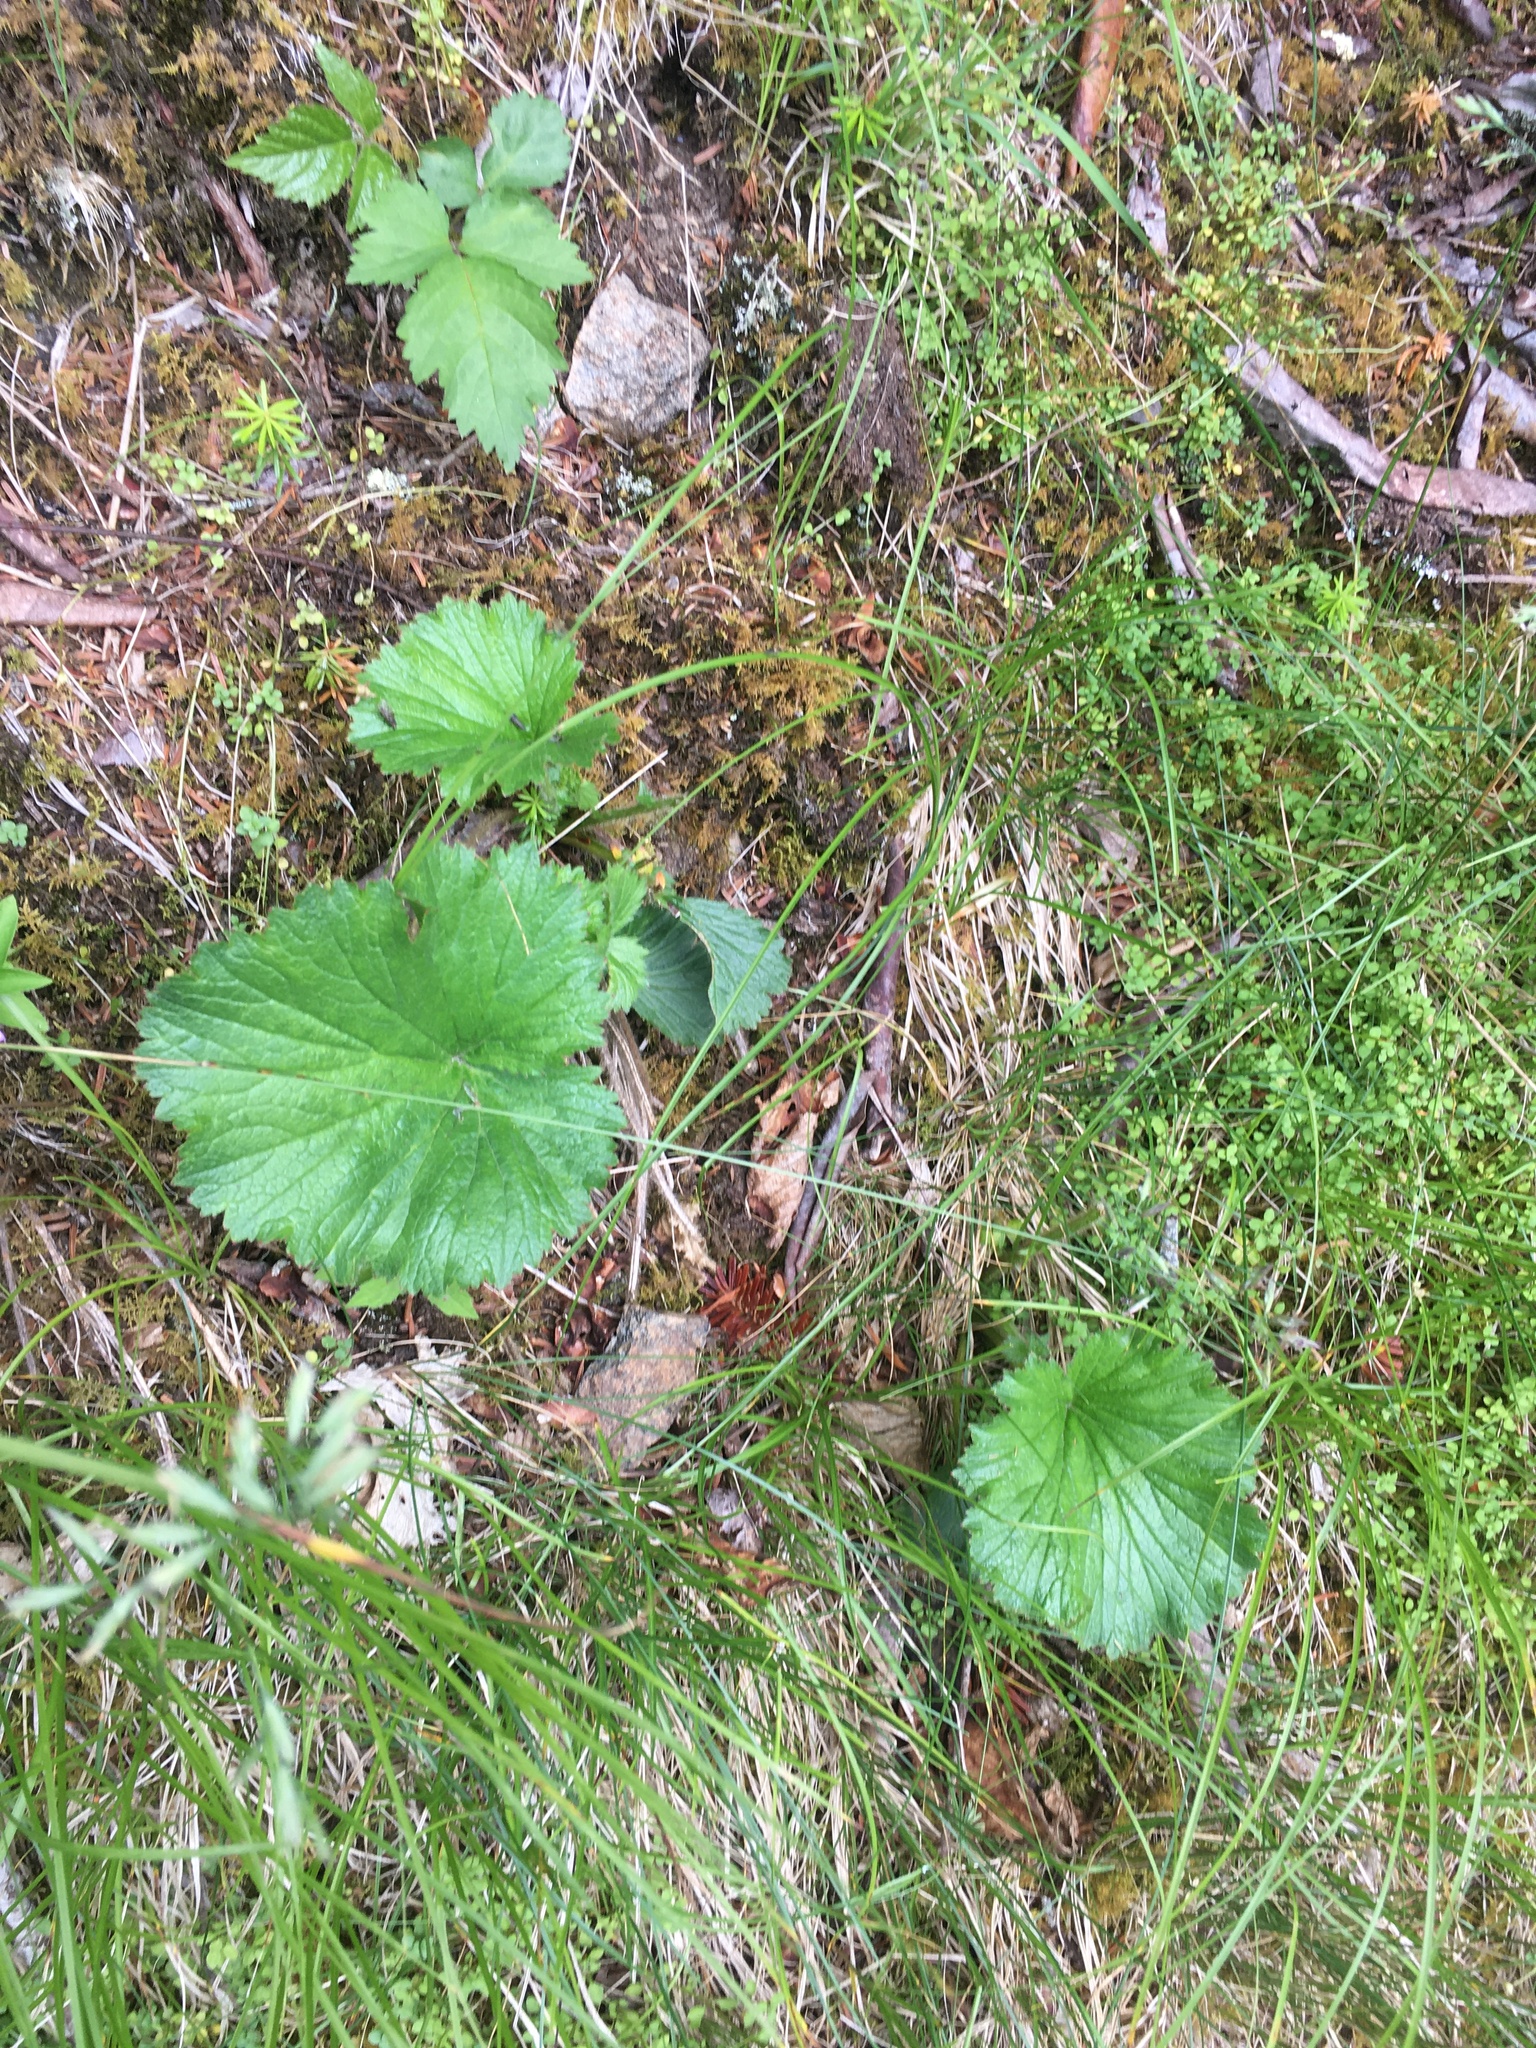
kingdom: Plantae
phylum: Tracheophyta
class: Magnoliopsida
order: Rosales
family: Rosaceae
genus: Geum
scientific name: Geum radiatum
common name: Spreaded avens
